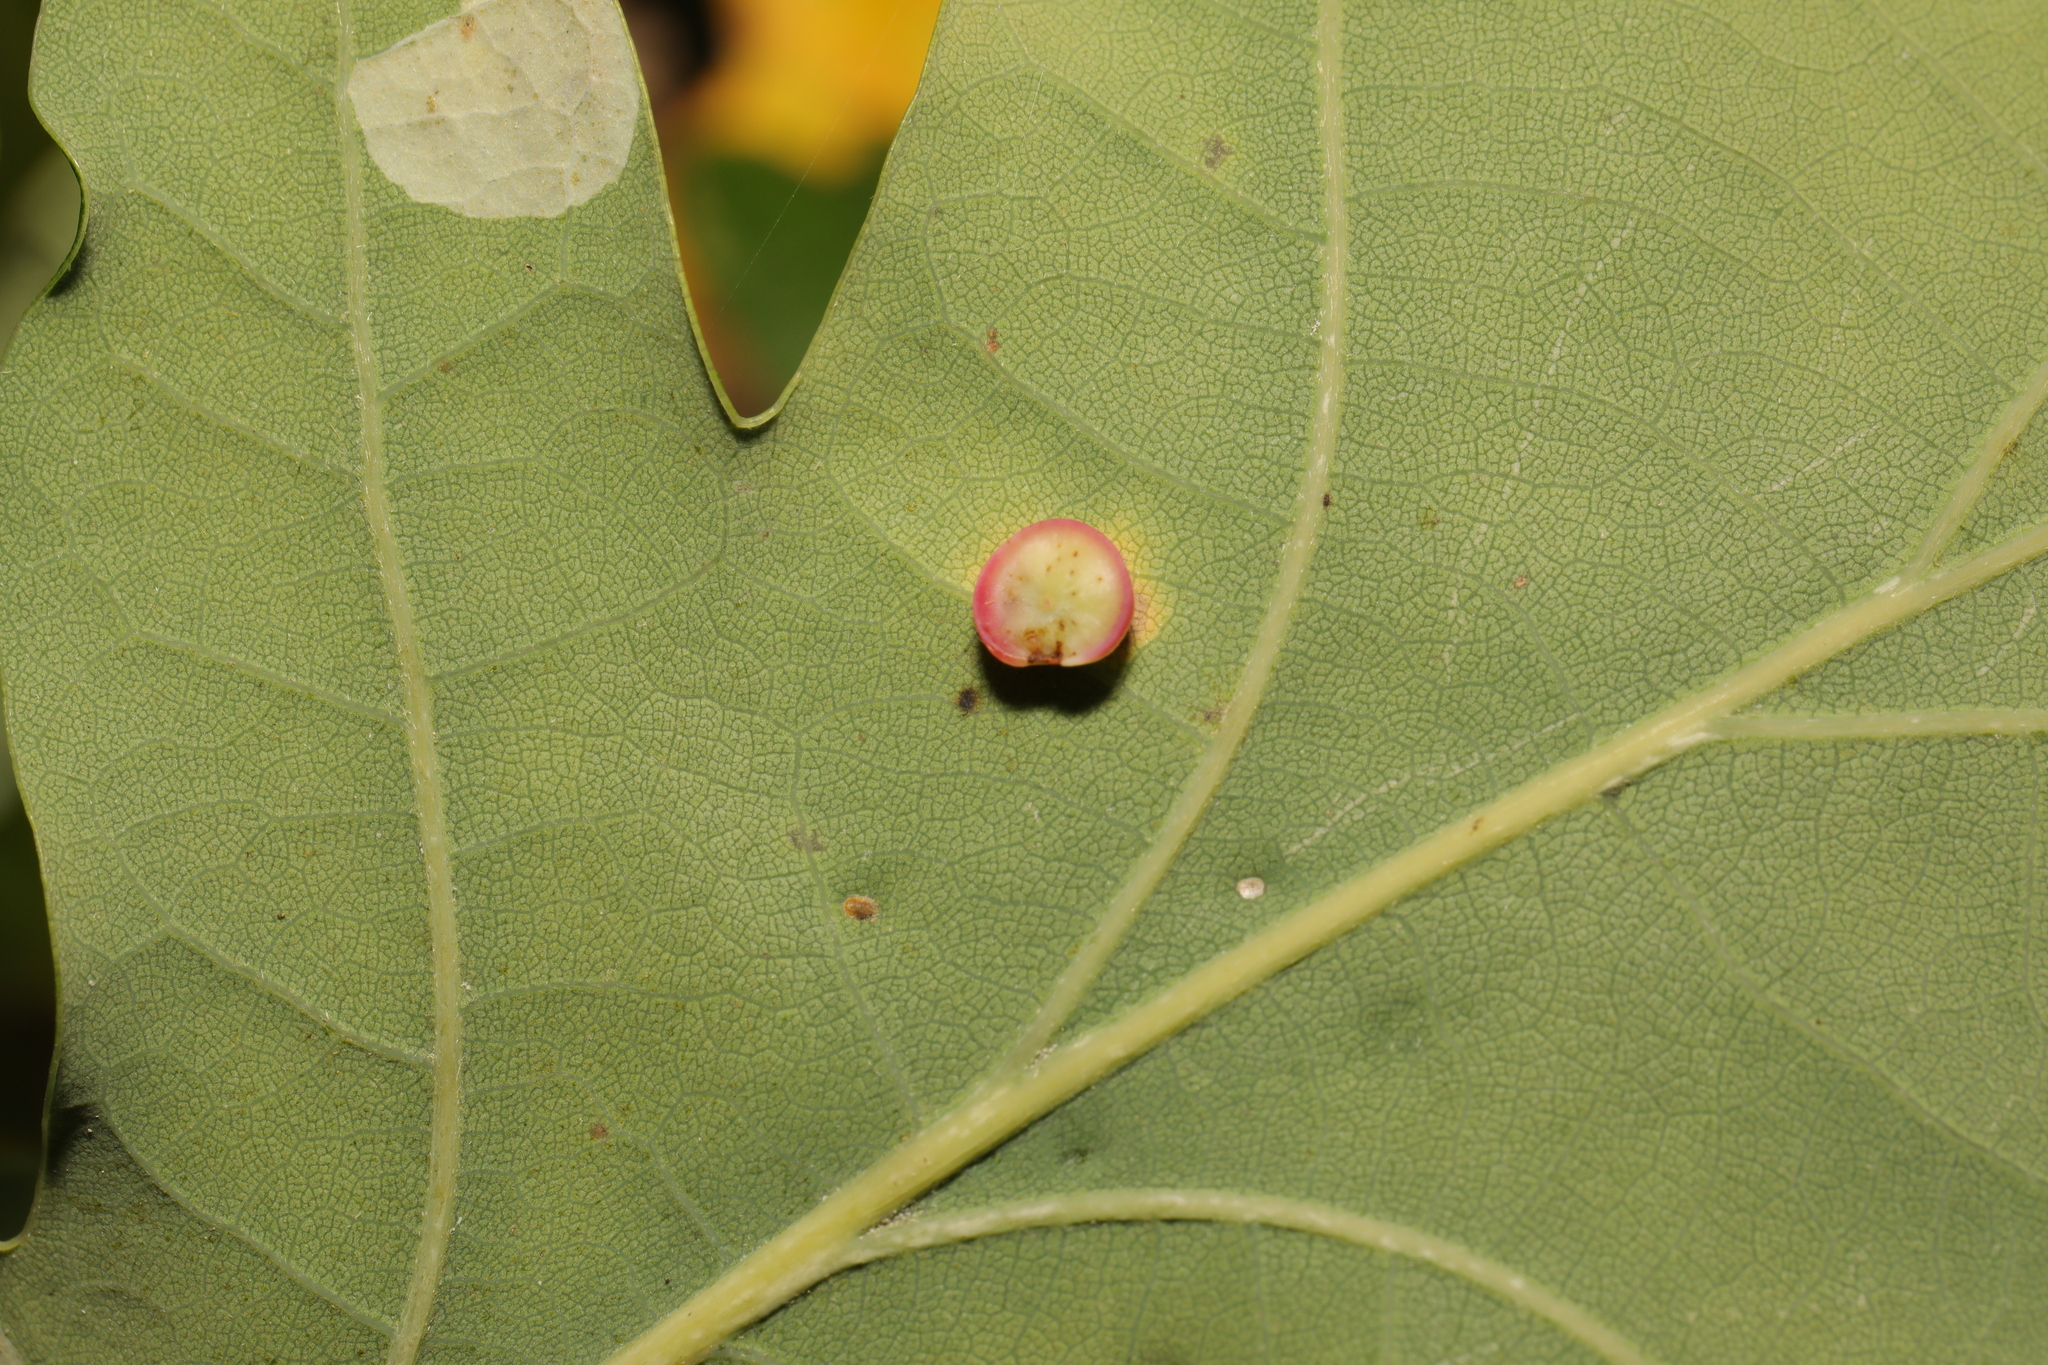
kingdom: Animalia
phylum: Arthropoda
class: Insecta
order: Hymenoptera
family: Cynipidae
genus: Neuroterus
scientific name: Neuroterus albipes
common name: Smooth spangle gall
